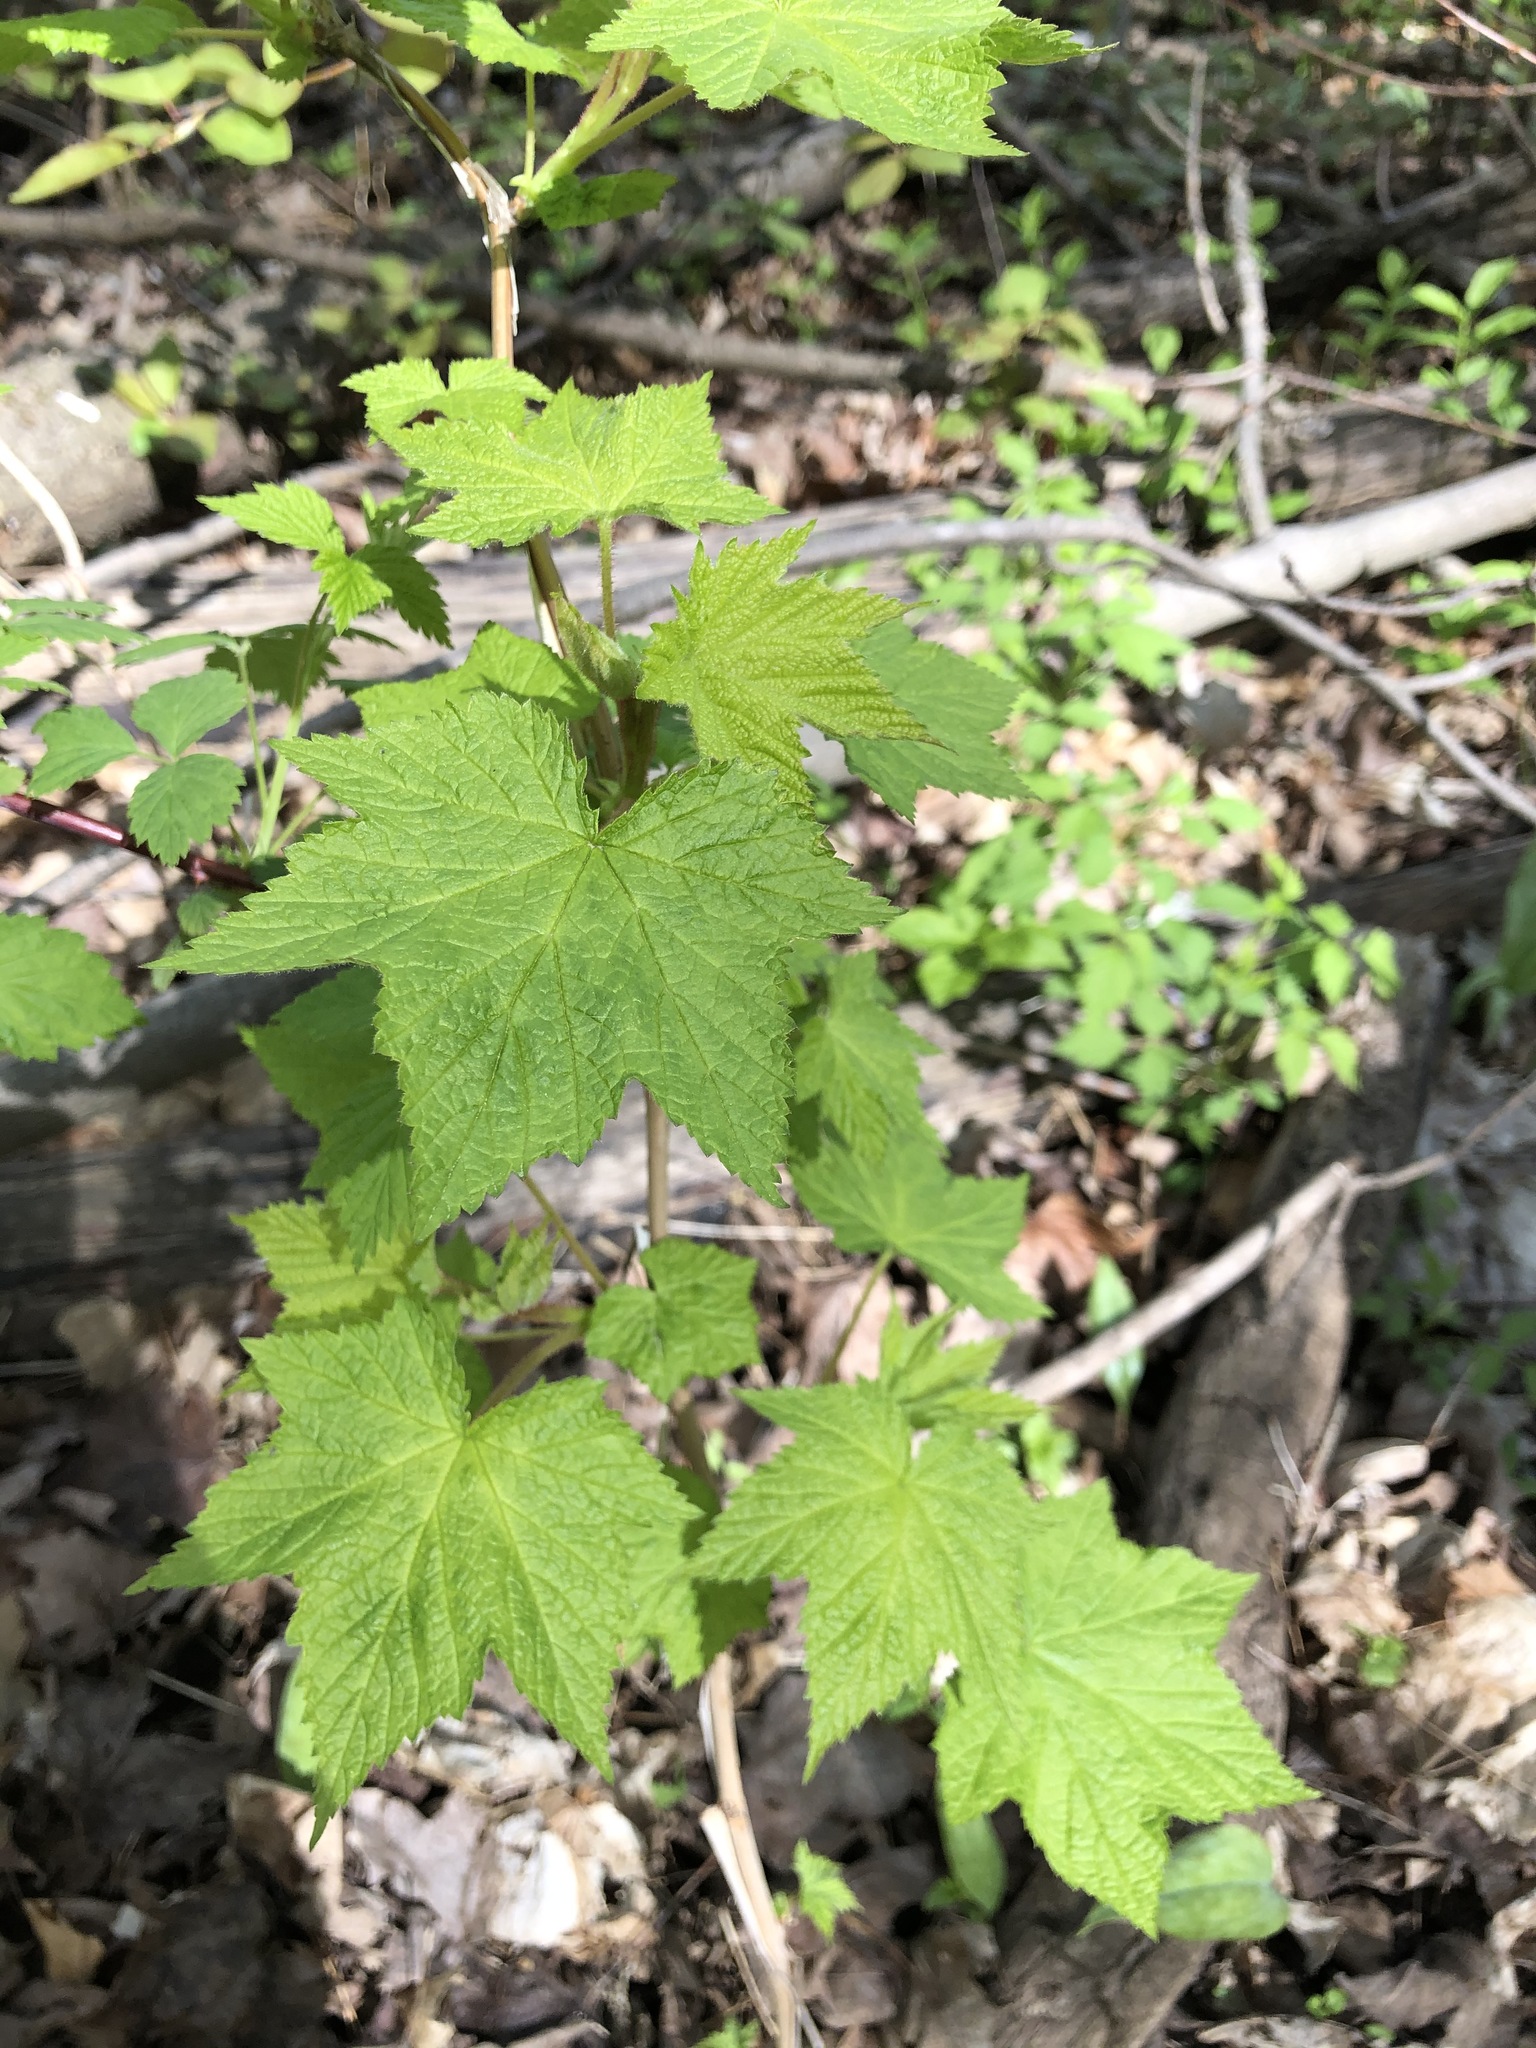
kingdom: Plantae
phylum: Tracheophyta
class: Magnoliopsida
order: Rosales
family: Rosaceae
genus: Rubus
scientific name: Rubus odoratus
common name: Purple-flowered raspberry
